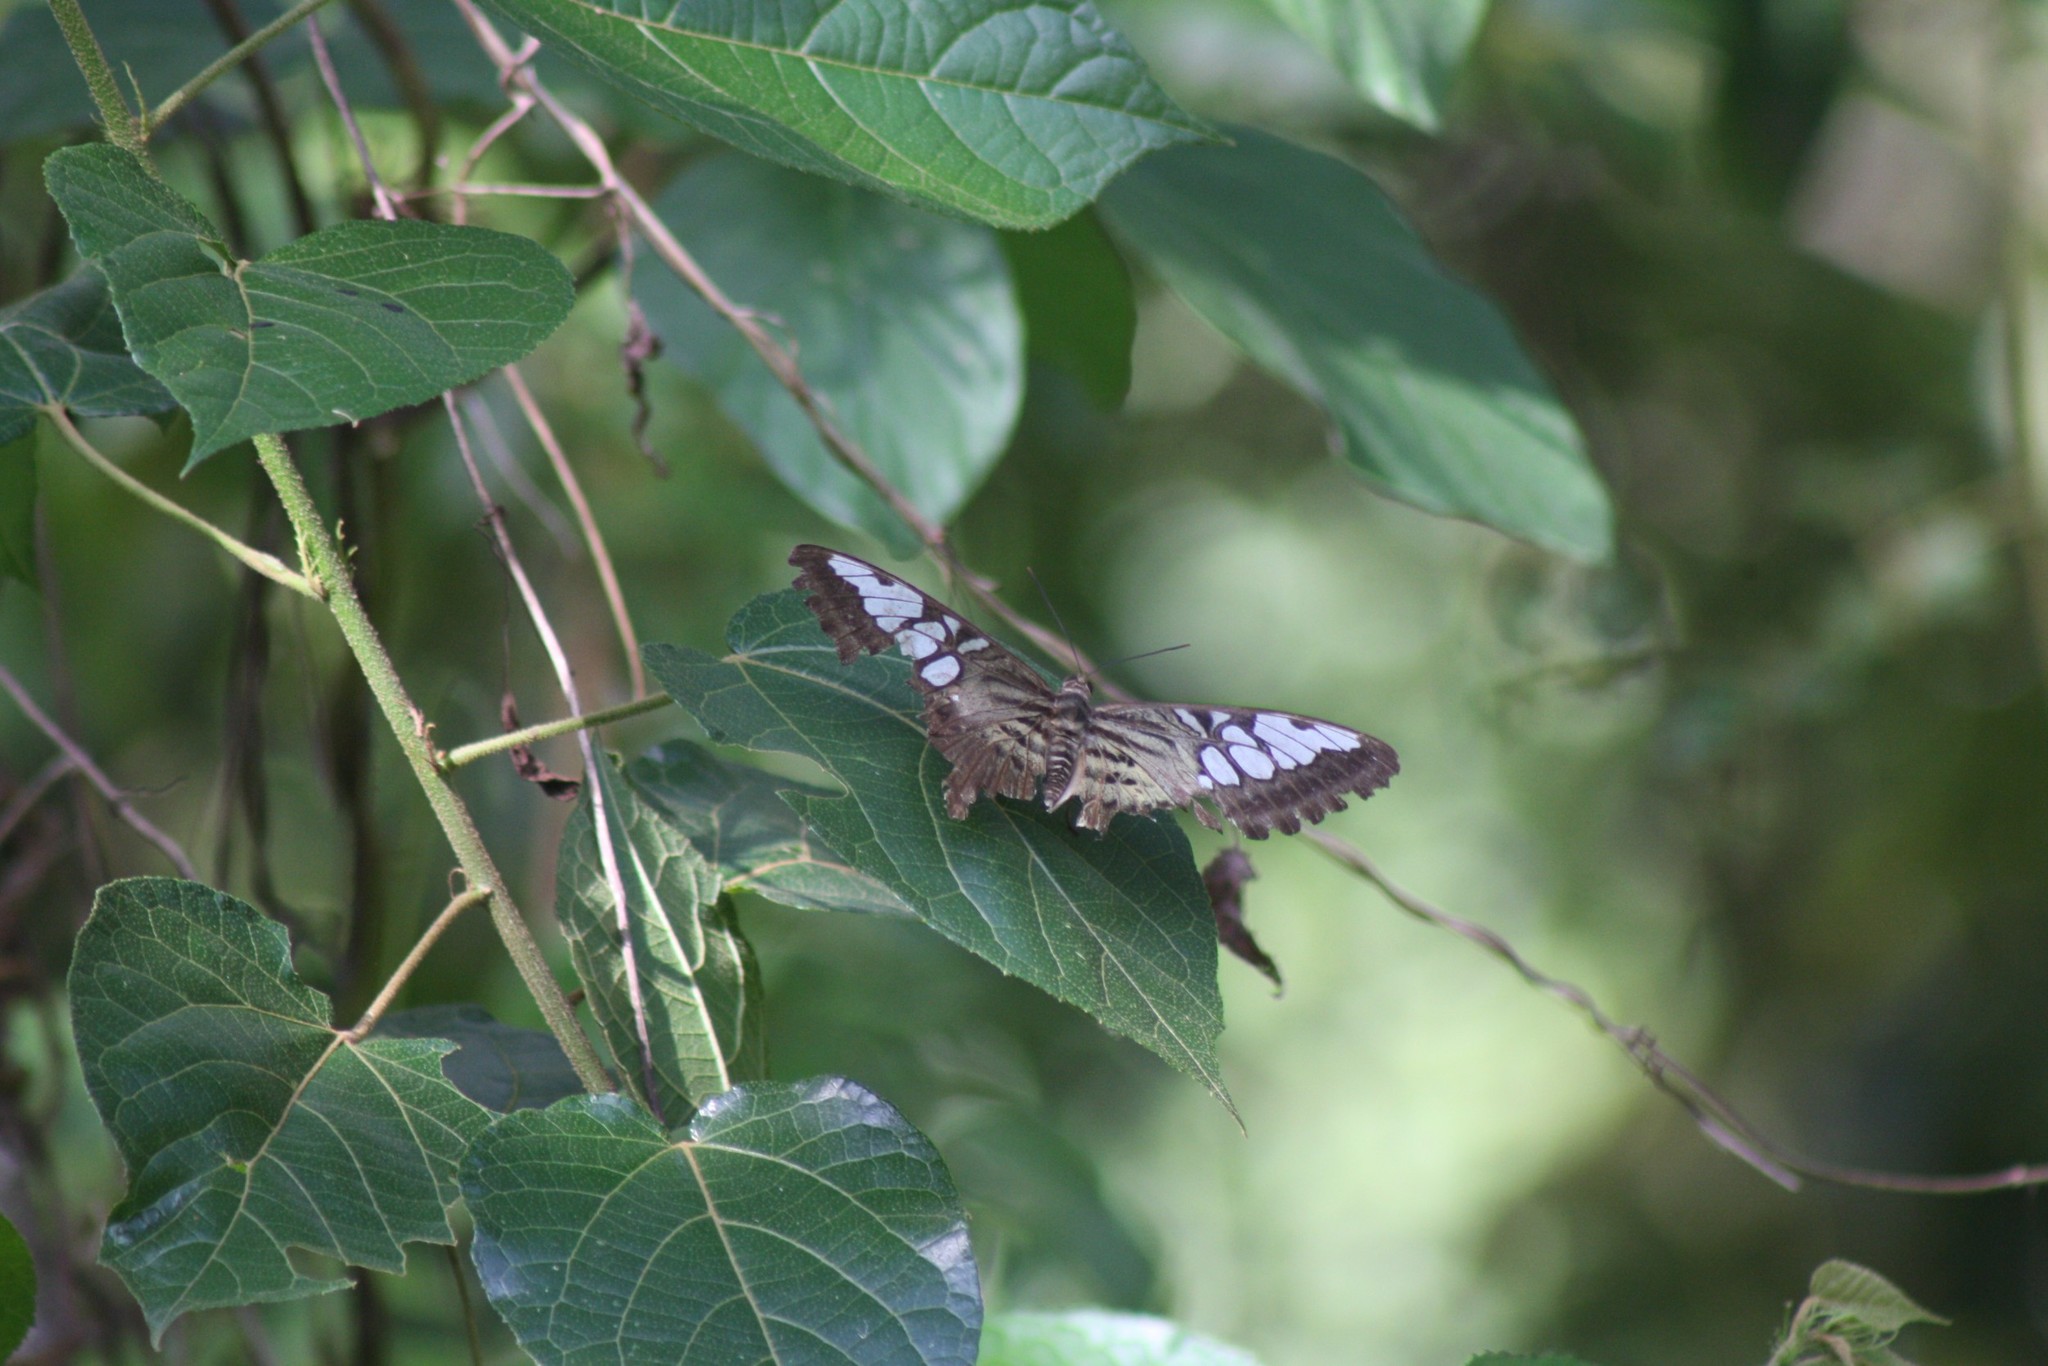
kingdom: Animalia
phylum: Arthropoda
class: Insecta
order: Lepidoptera
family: Nymphalidae
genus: Kallima
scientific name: Kallima sylvia
